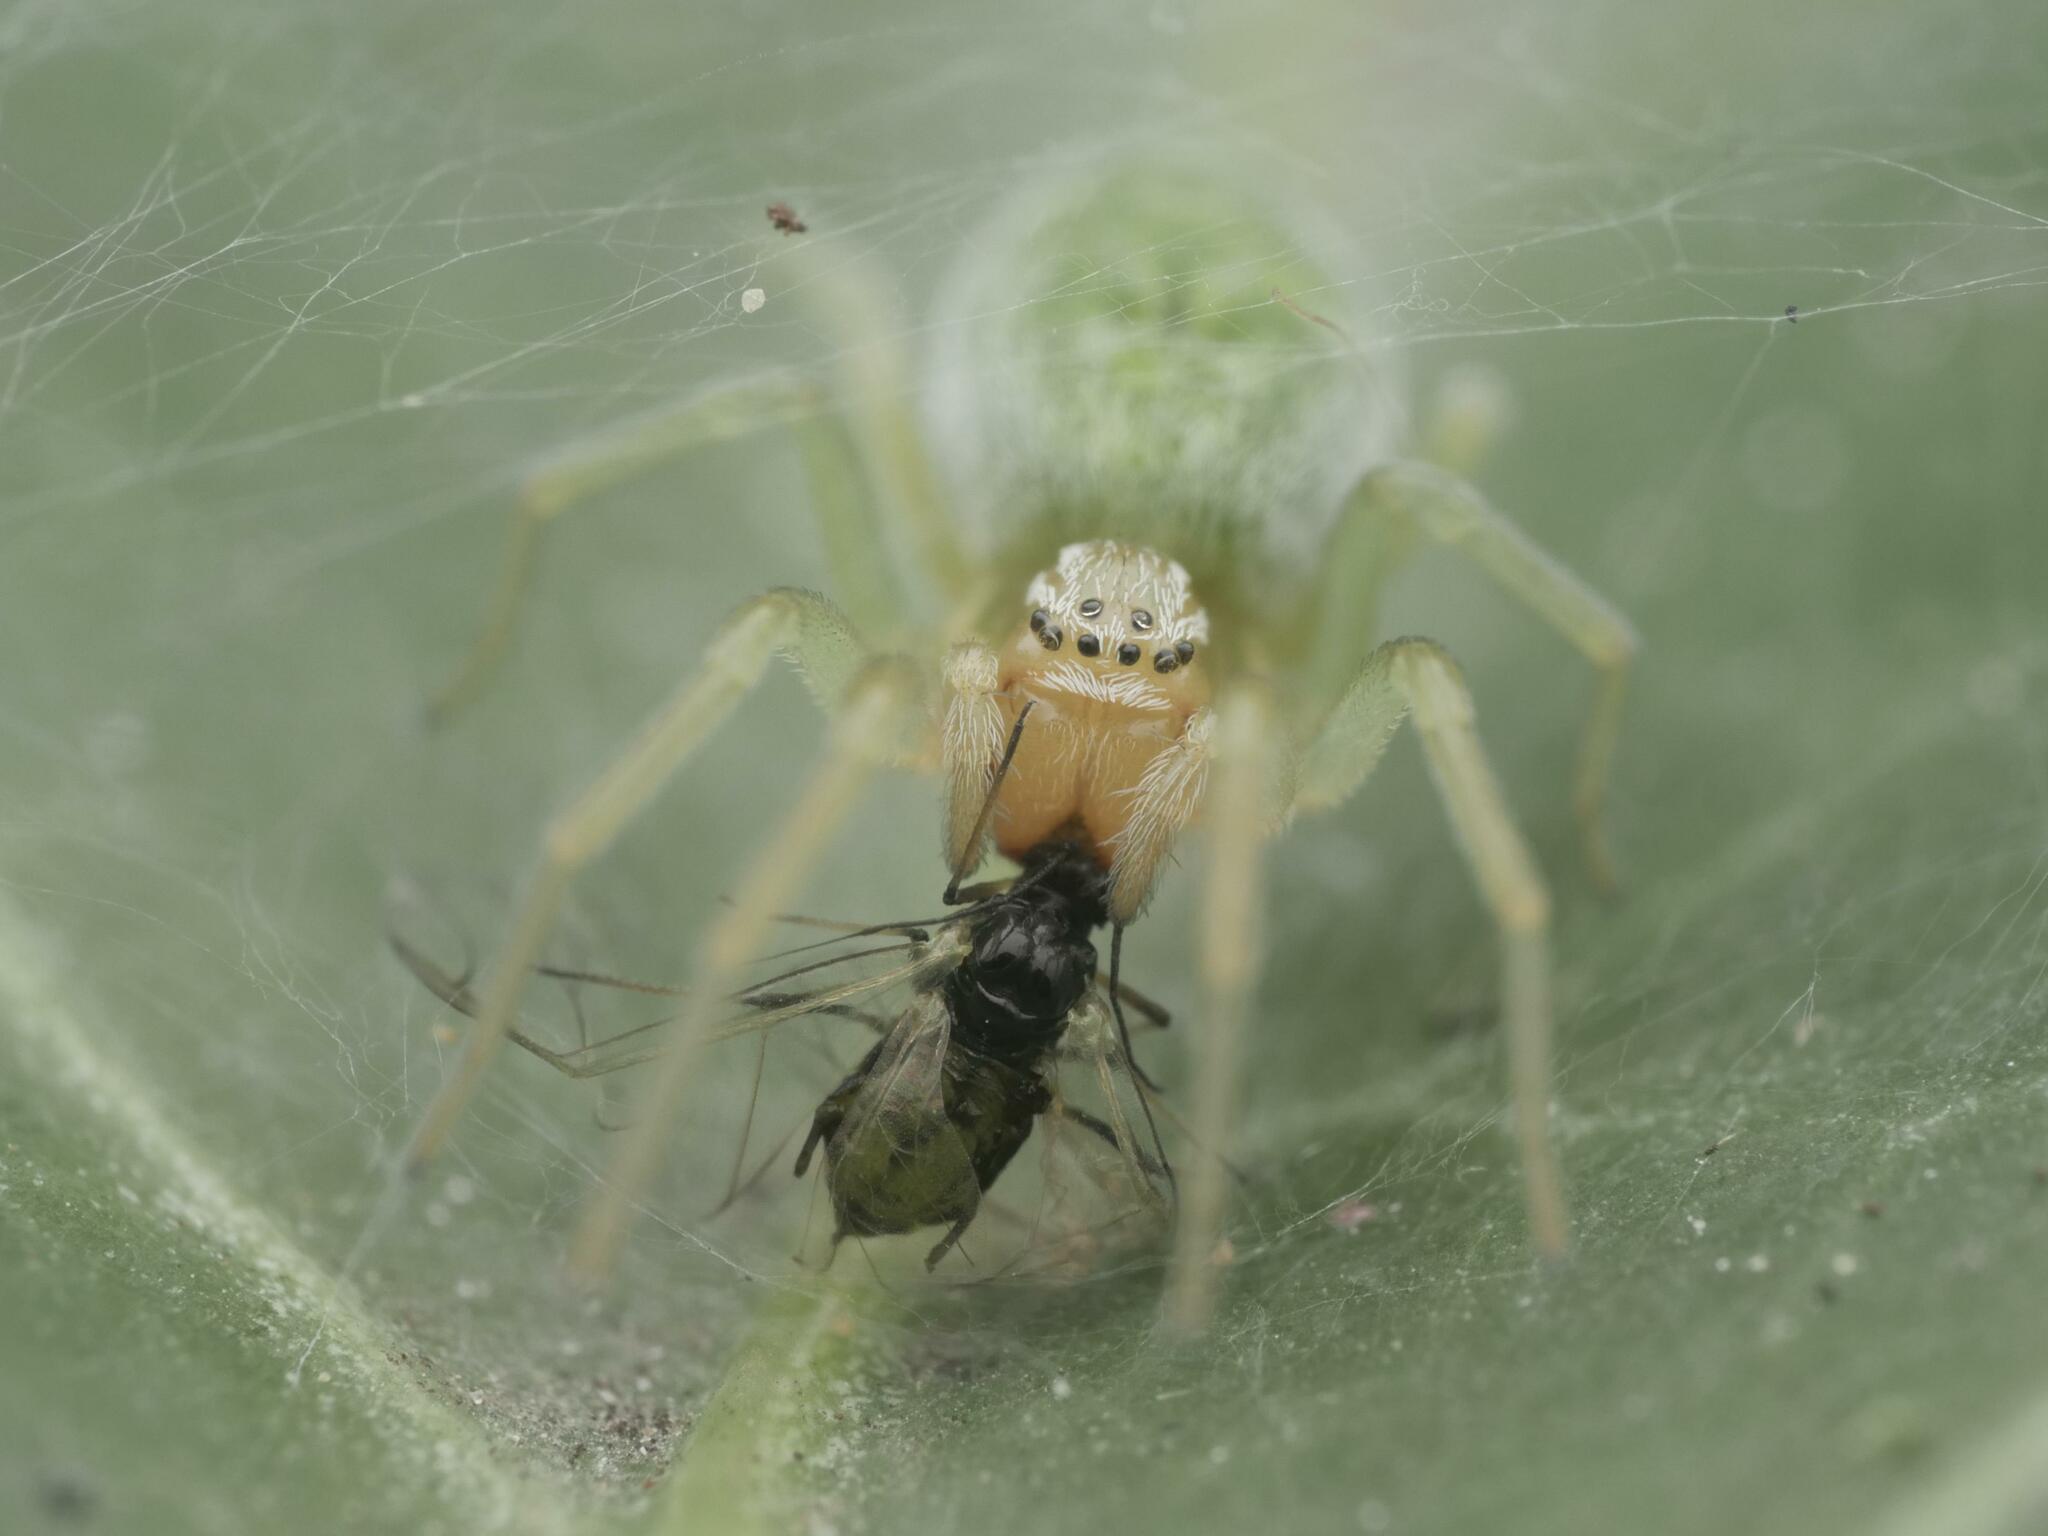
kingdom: Animalia
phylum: Arthropoda
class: Arachnida
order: Araneae
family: Dictynidae
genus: Nigma
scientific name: Nigma walckenaeri
